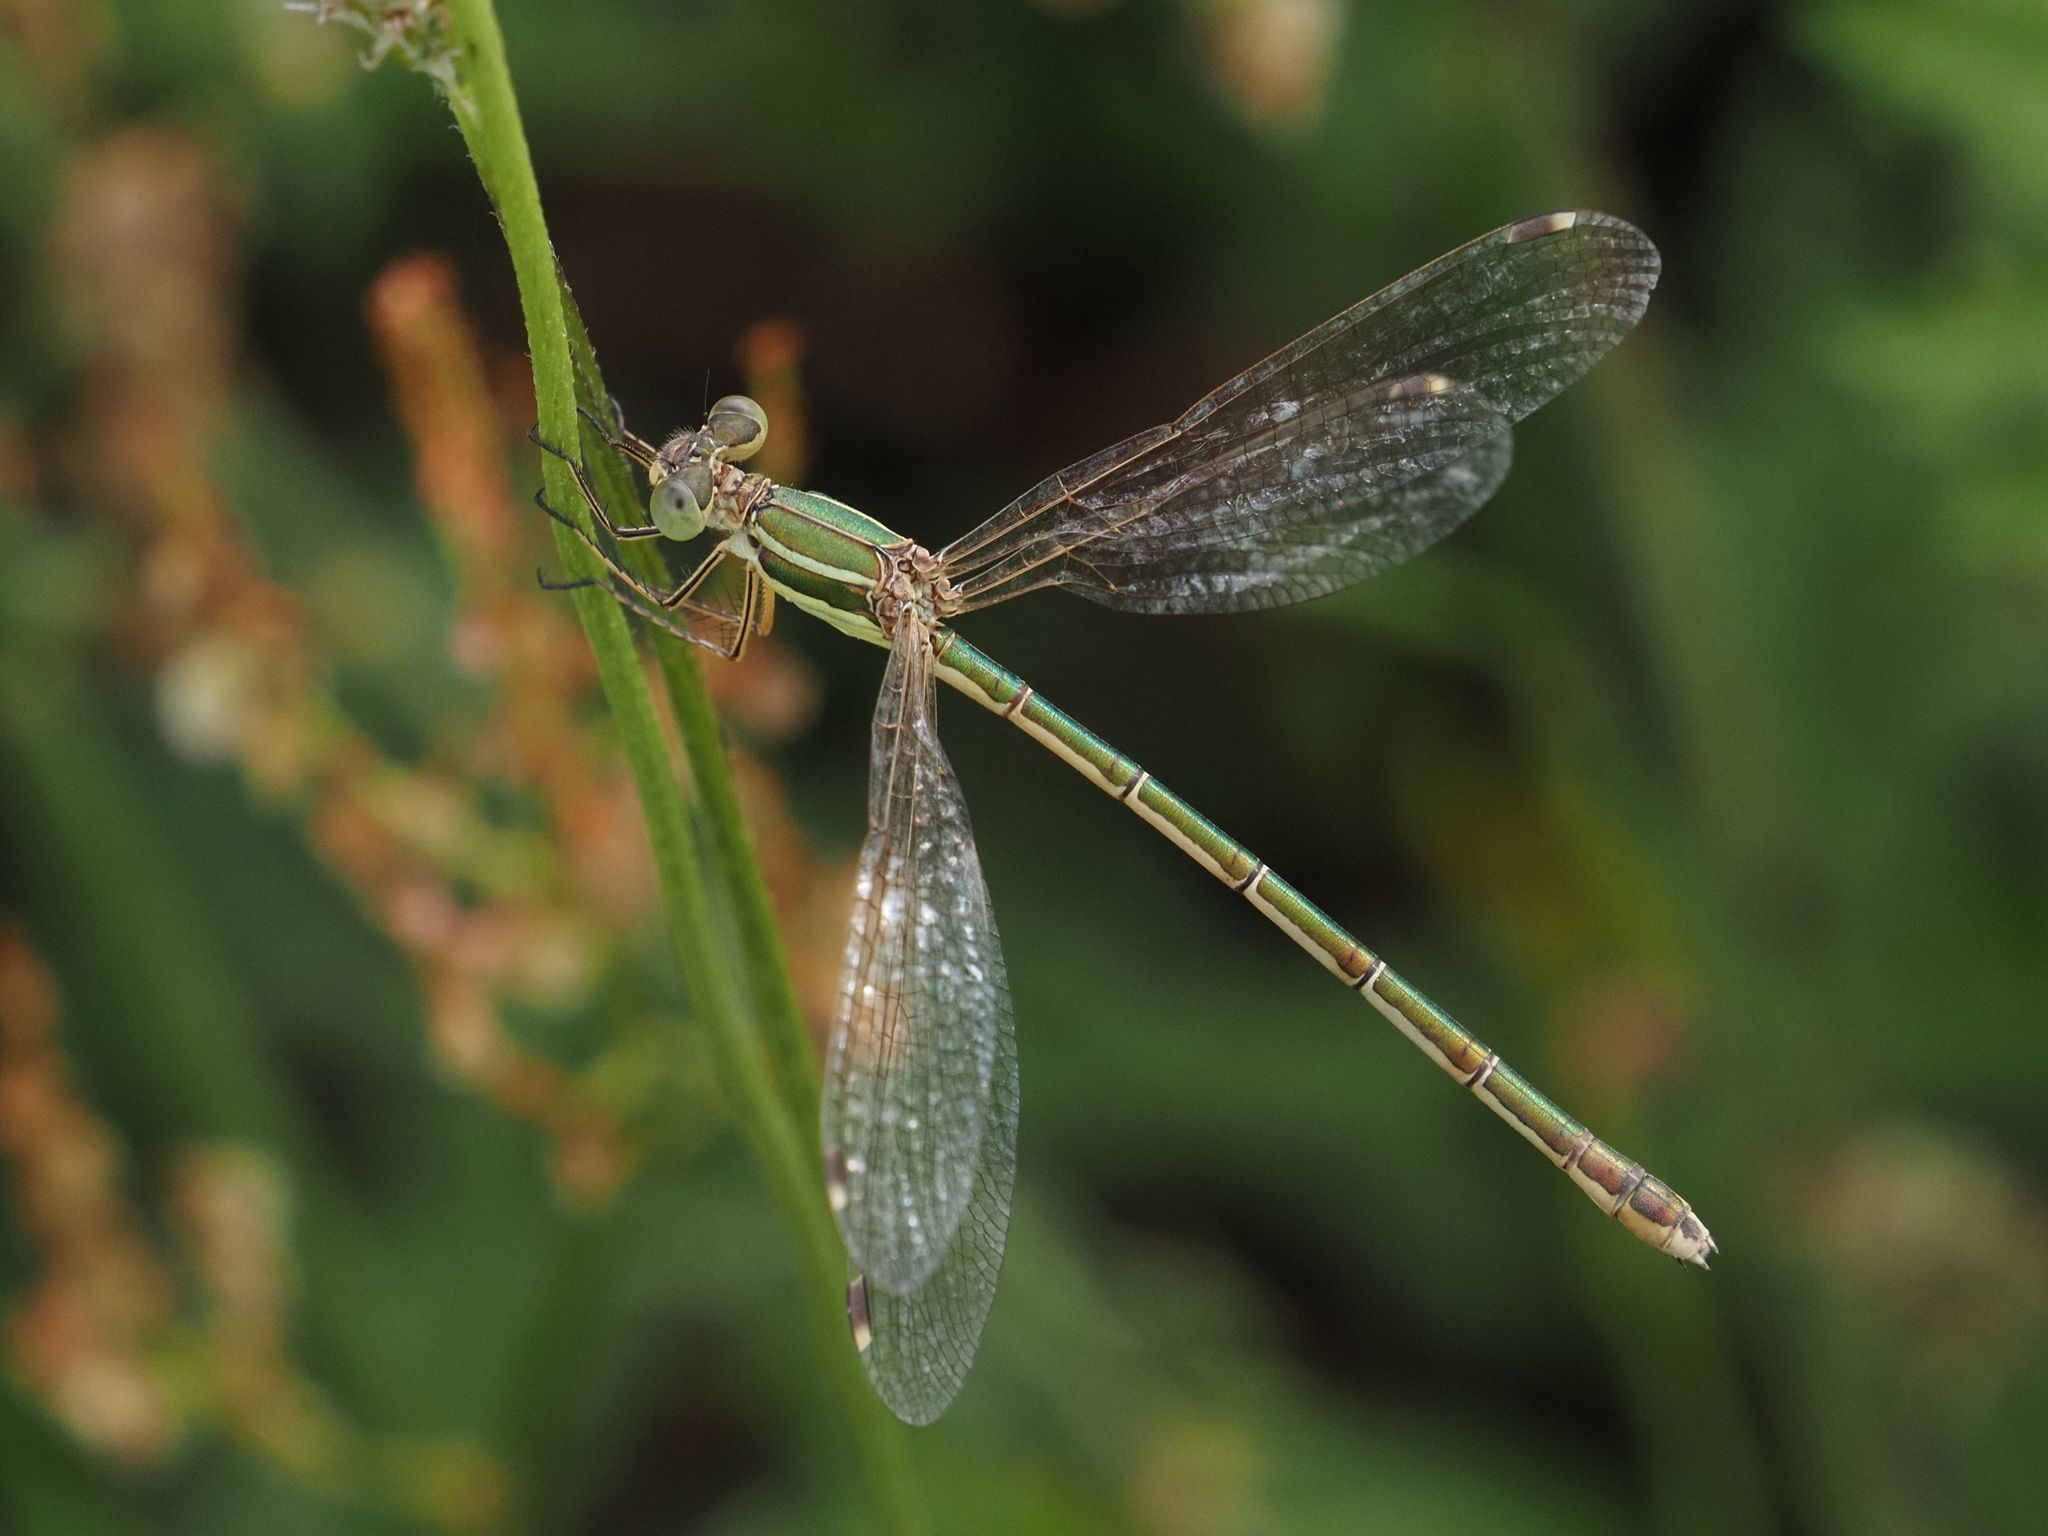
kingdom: Animalia
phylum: Arthropoda
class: Insecta
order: Odonata
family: Lestidae
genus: Lestes
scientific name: Lestes barbarus
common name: Migrant spreadwing
